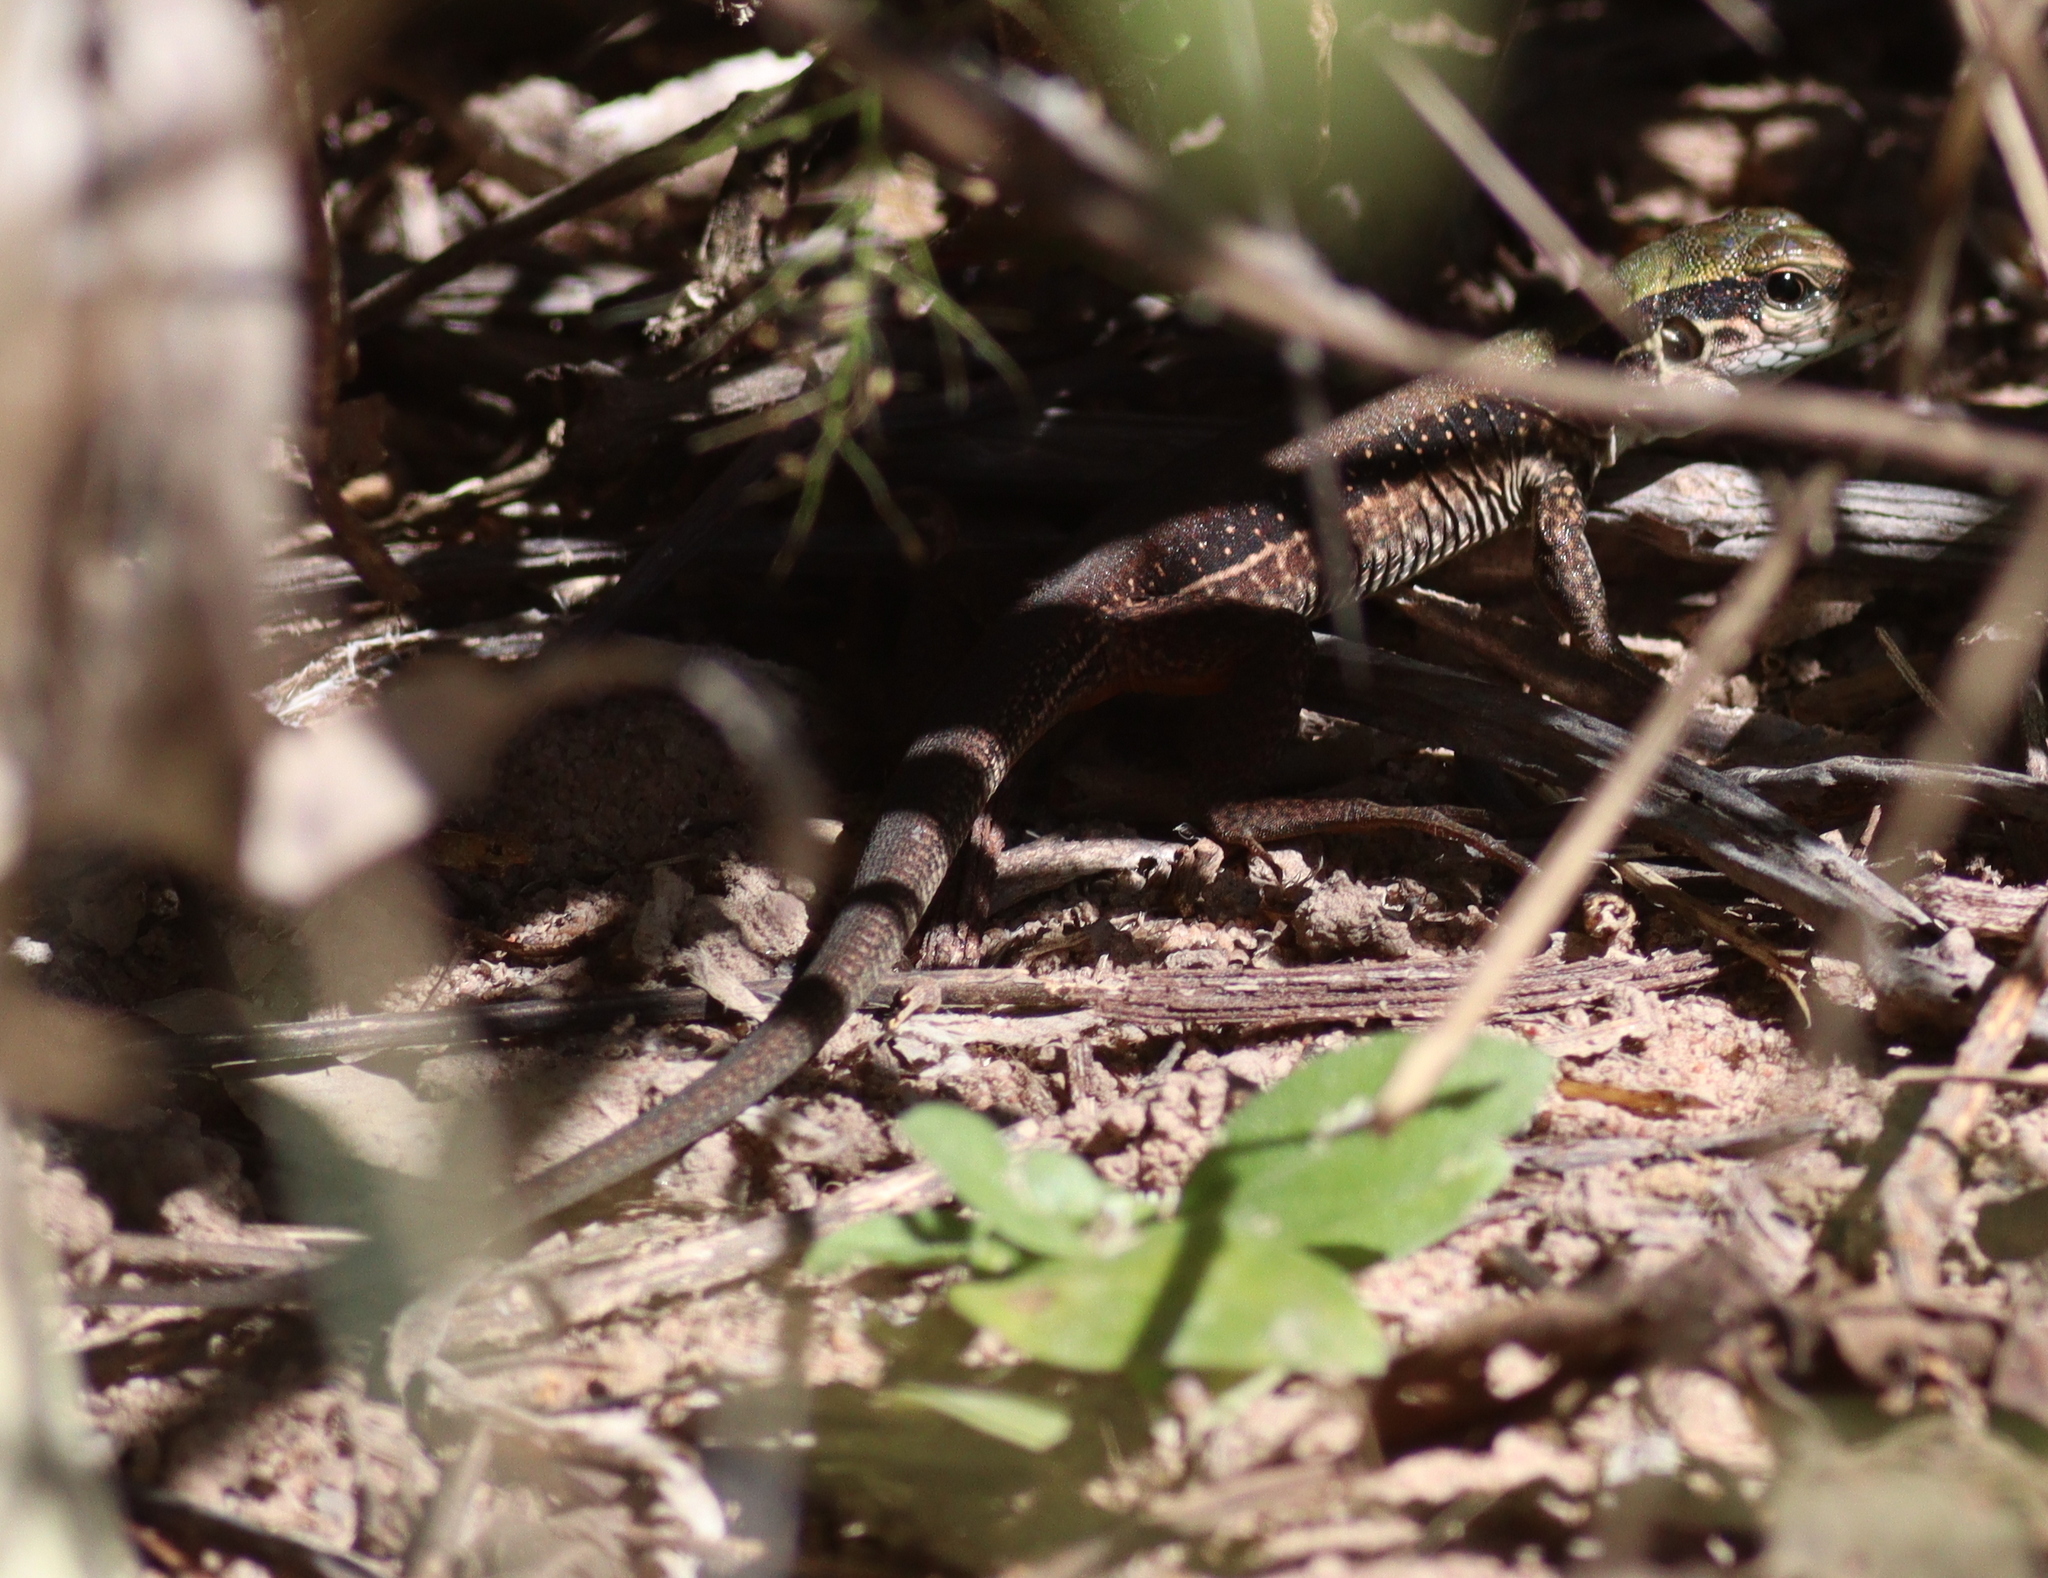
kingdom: Animalia
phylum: Chordata
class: Squamata
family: Teiidae
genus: Ameiva
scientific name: Ameiva ameiva
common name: Giant ameiva
